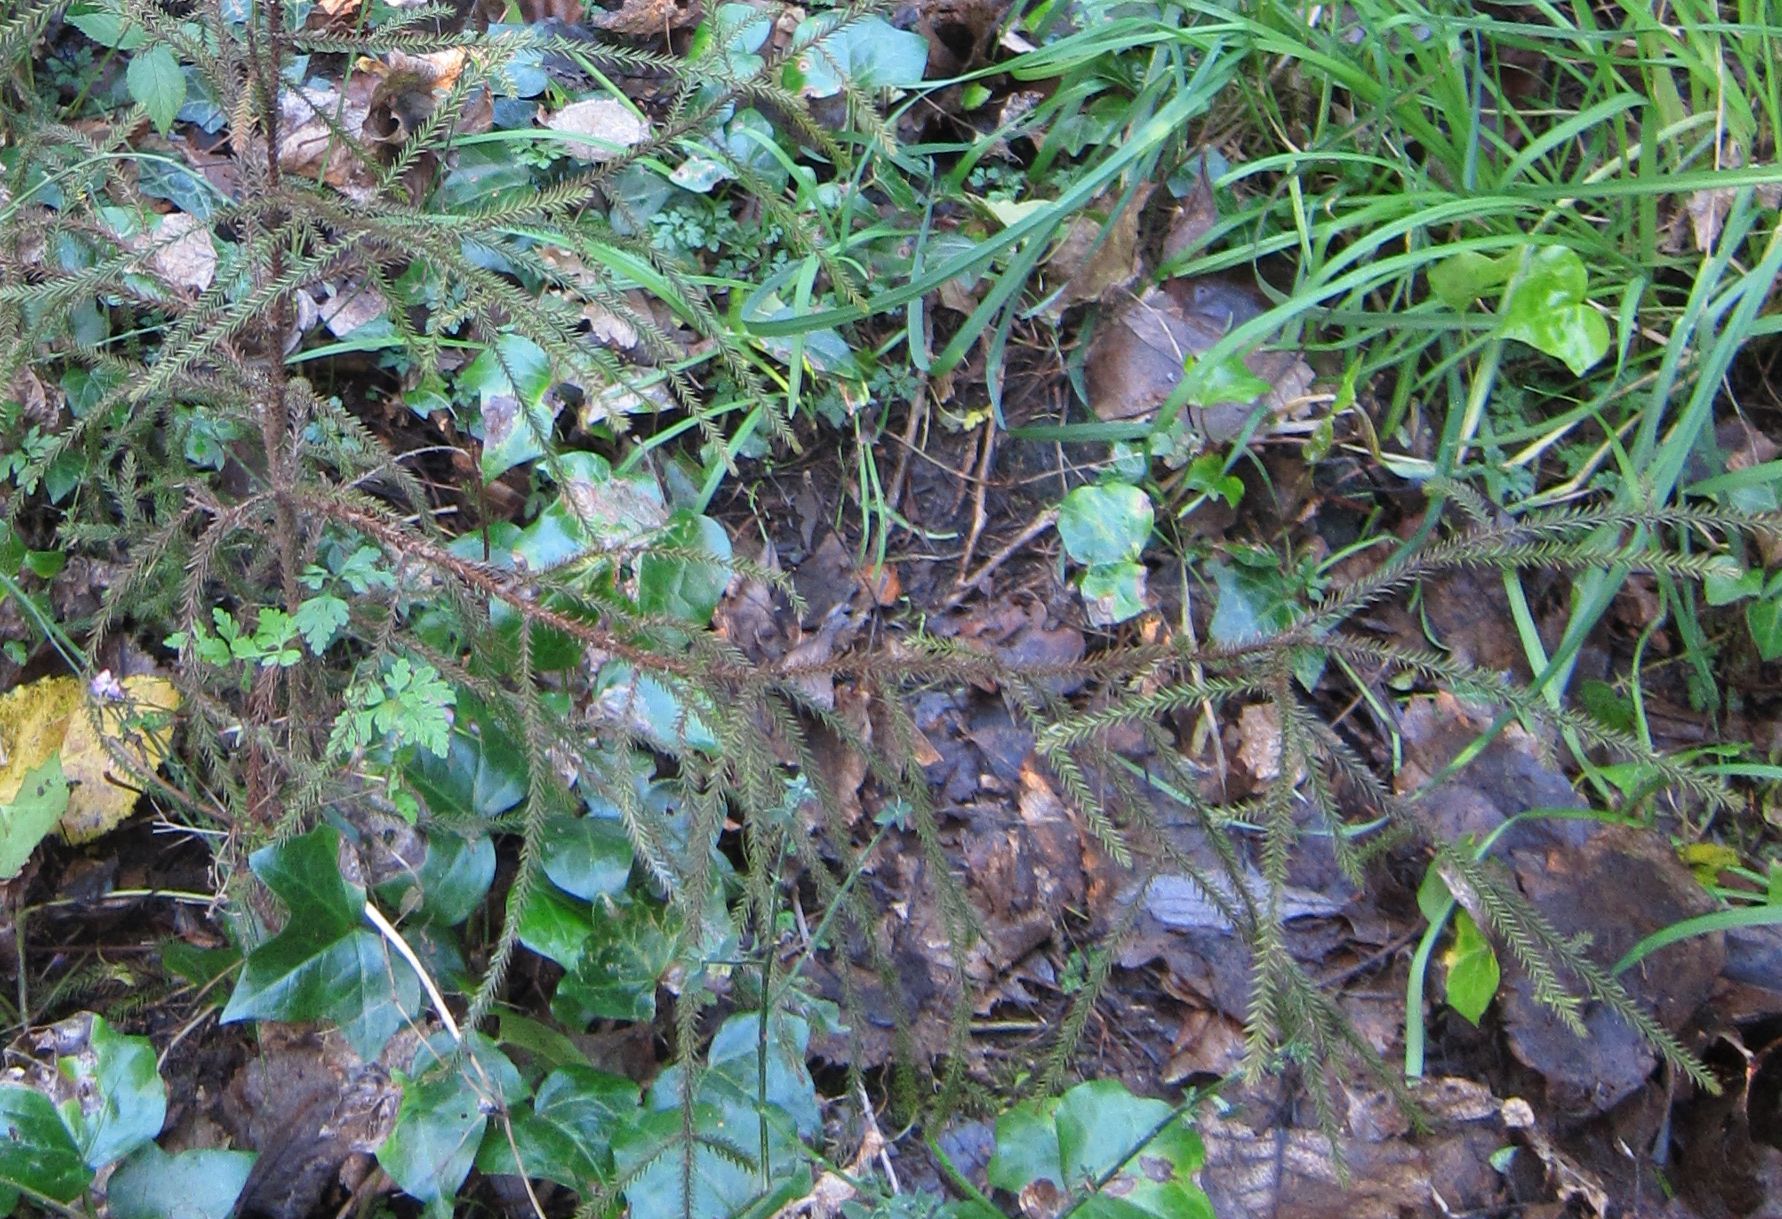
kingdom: Plantae
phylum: Tracheophyta
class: Pinopsida
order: Pinales
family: Podocarpaceae
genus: Dacrydium
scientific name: Dacrydium cupressinum
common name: Red pine
